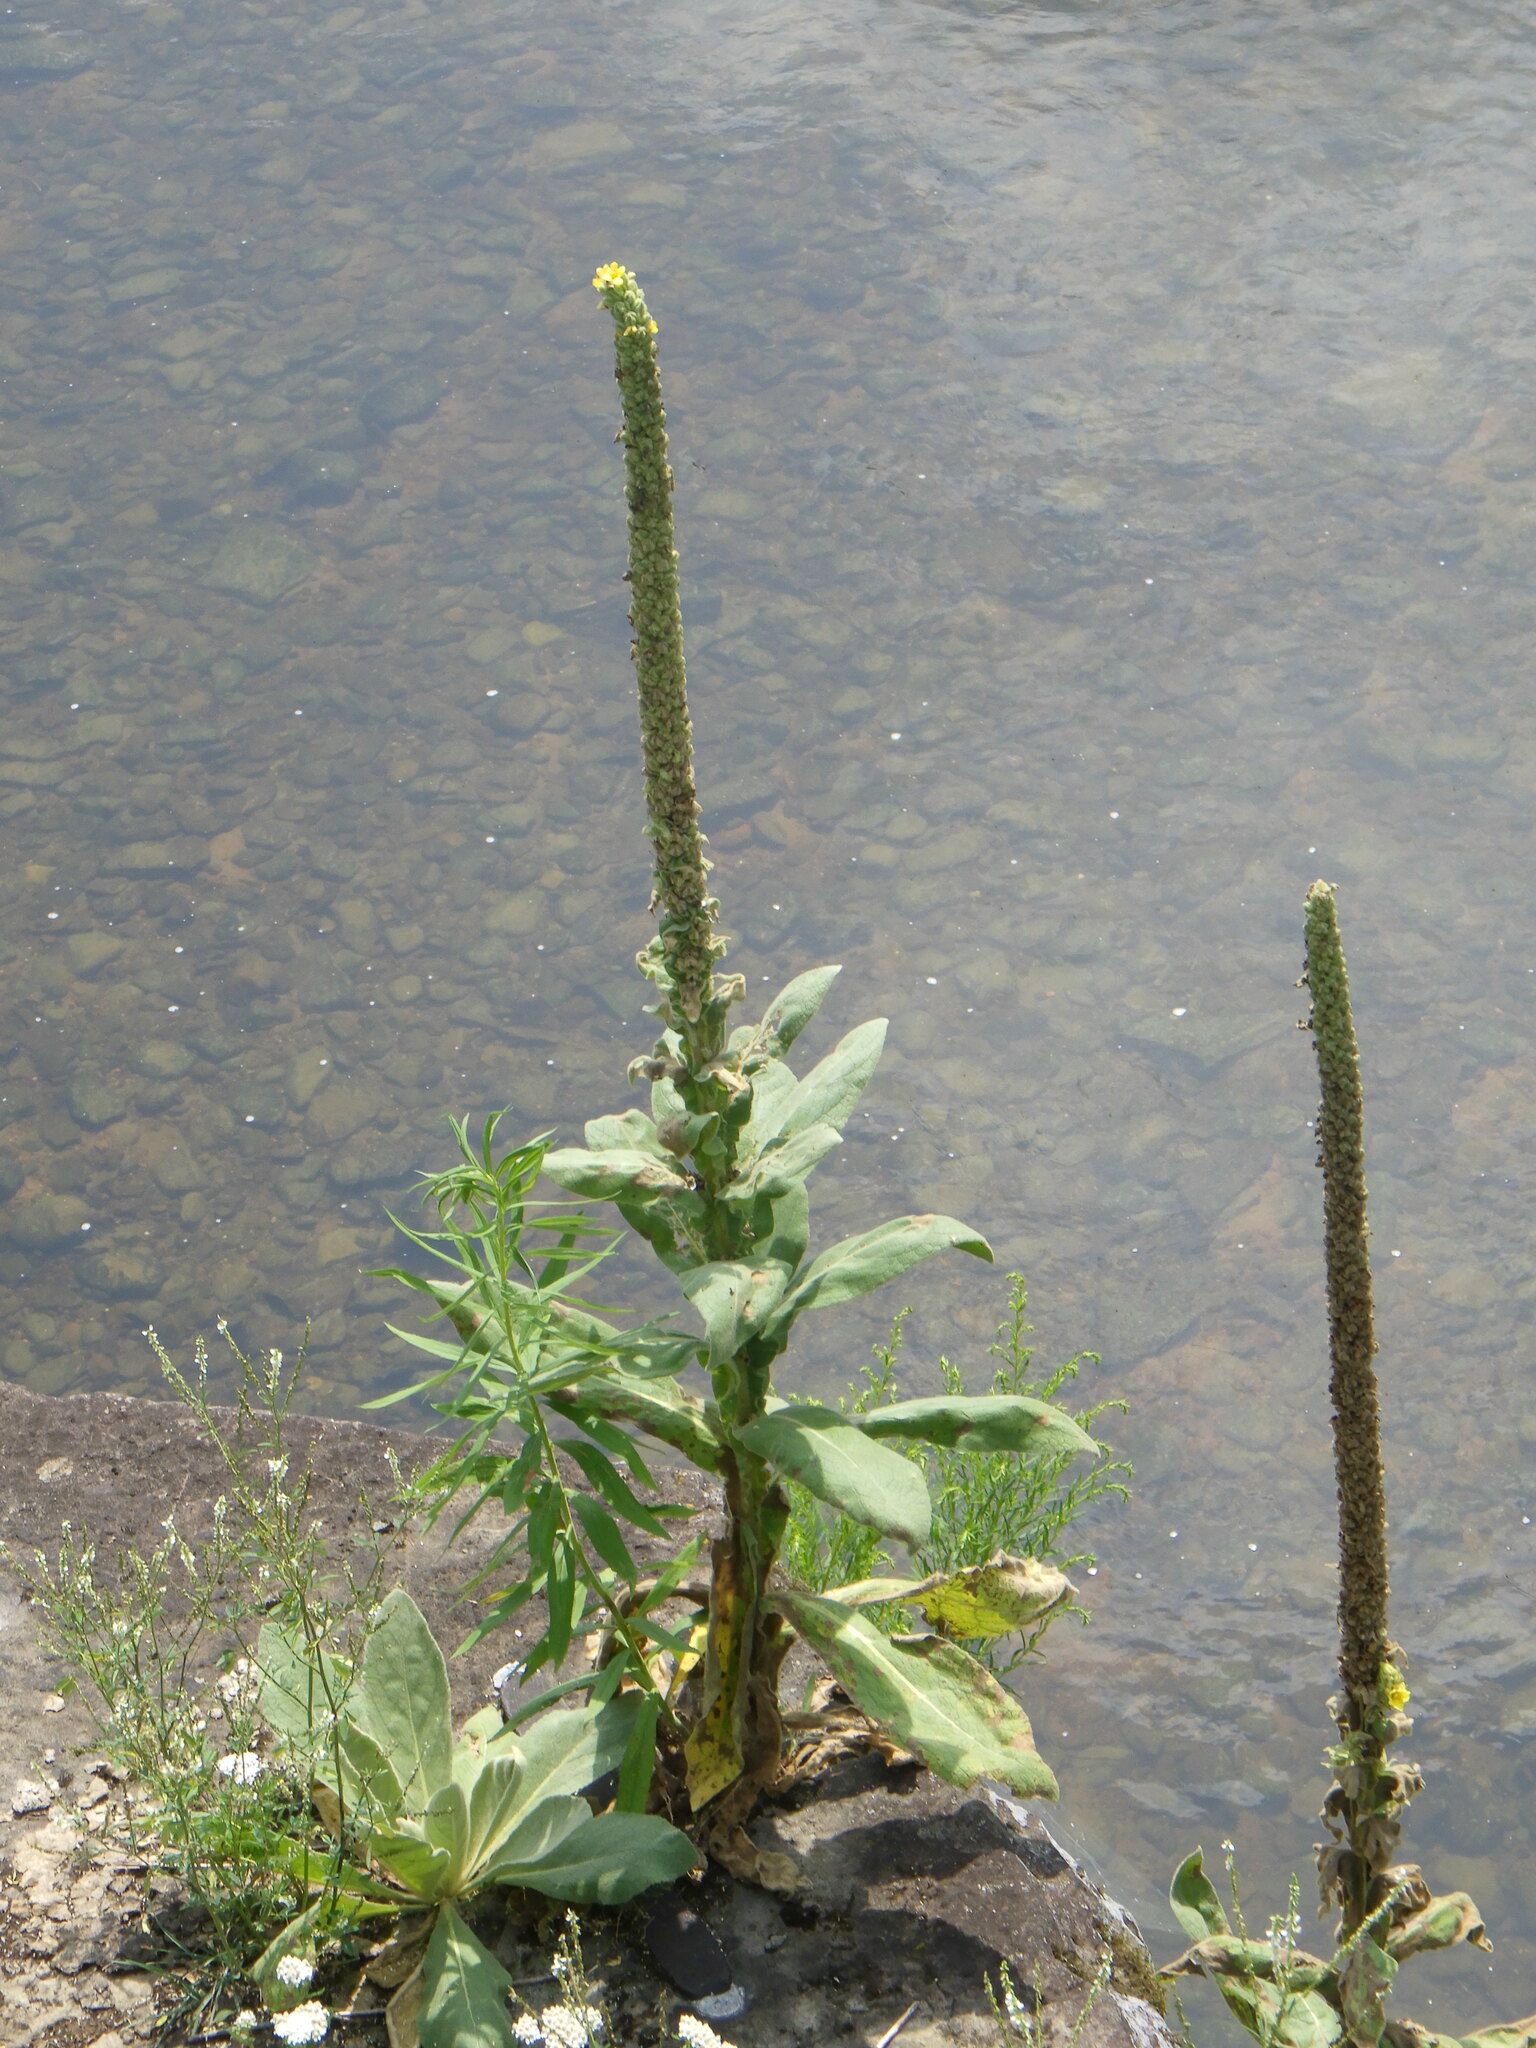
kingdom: Plantae
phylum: Tracheophyta
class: Magnoliopsida
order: Lamiales
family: Scrophulariaceae
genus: Verbascum
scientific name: Verbascum thapsus
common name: Common mullein
